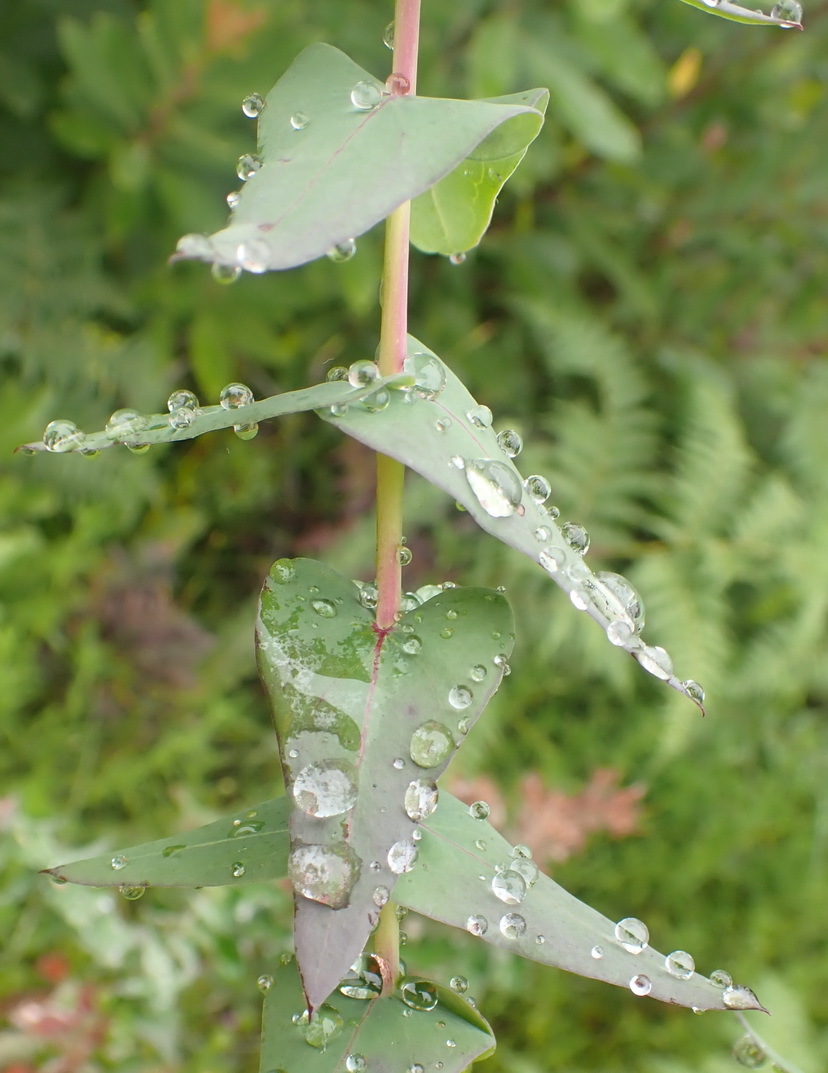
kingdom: Plantae
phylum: Tracheophyta
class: Magnoliopsida
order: Fabales
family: Polygalaceae
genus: Polygala
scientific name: Polygala fruticosa
